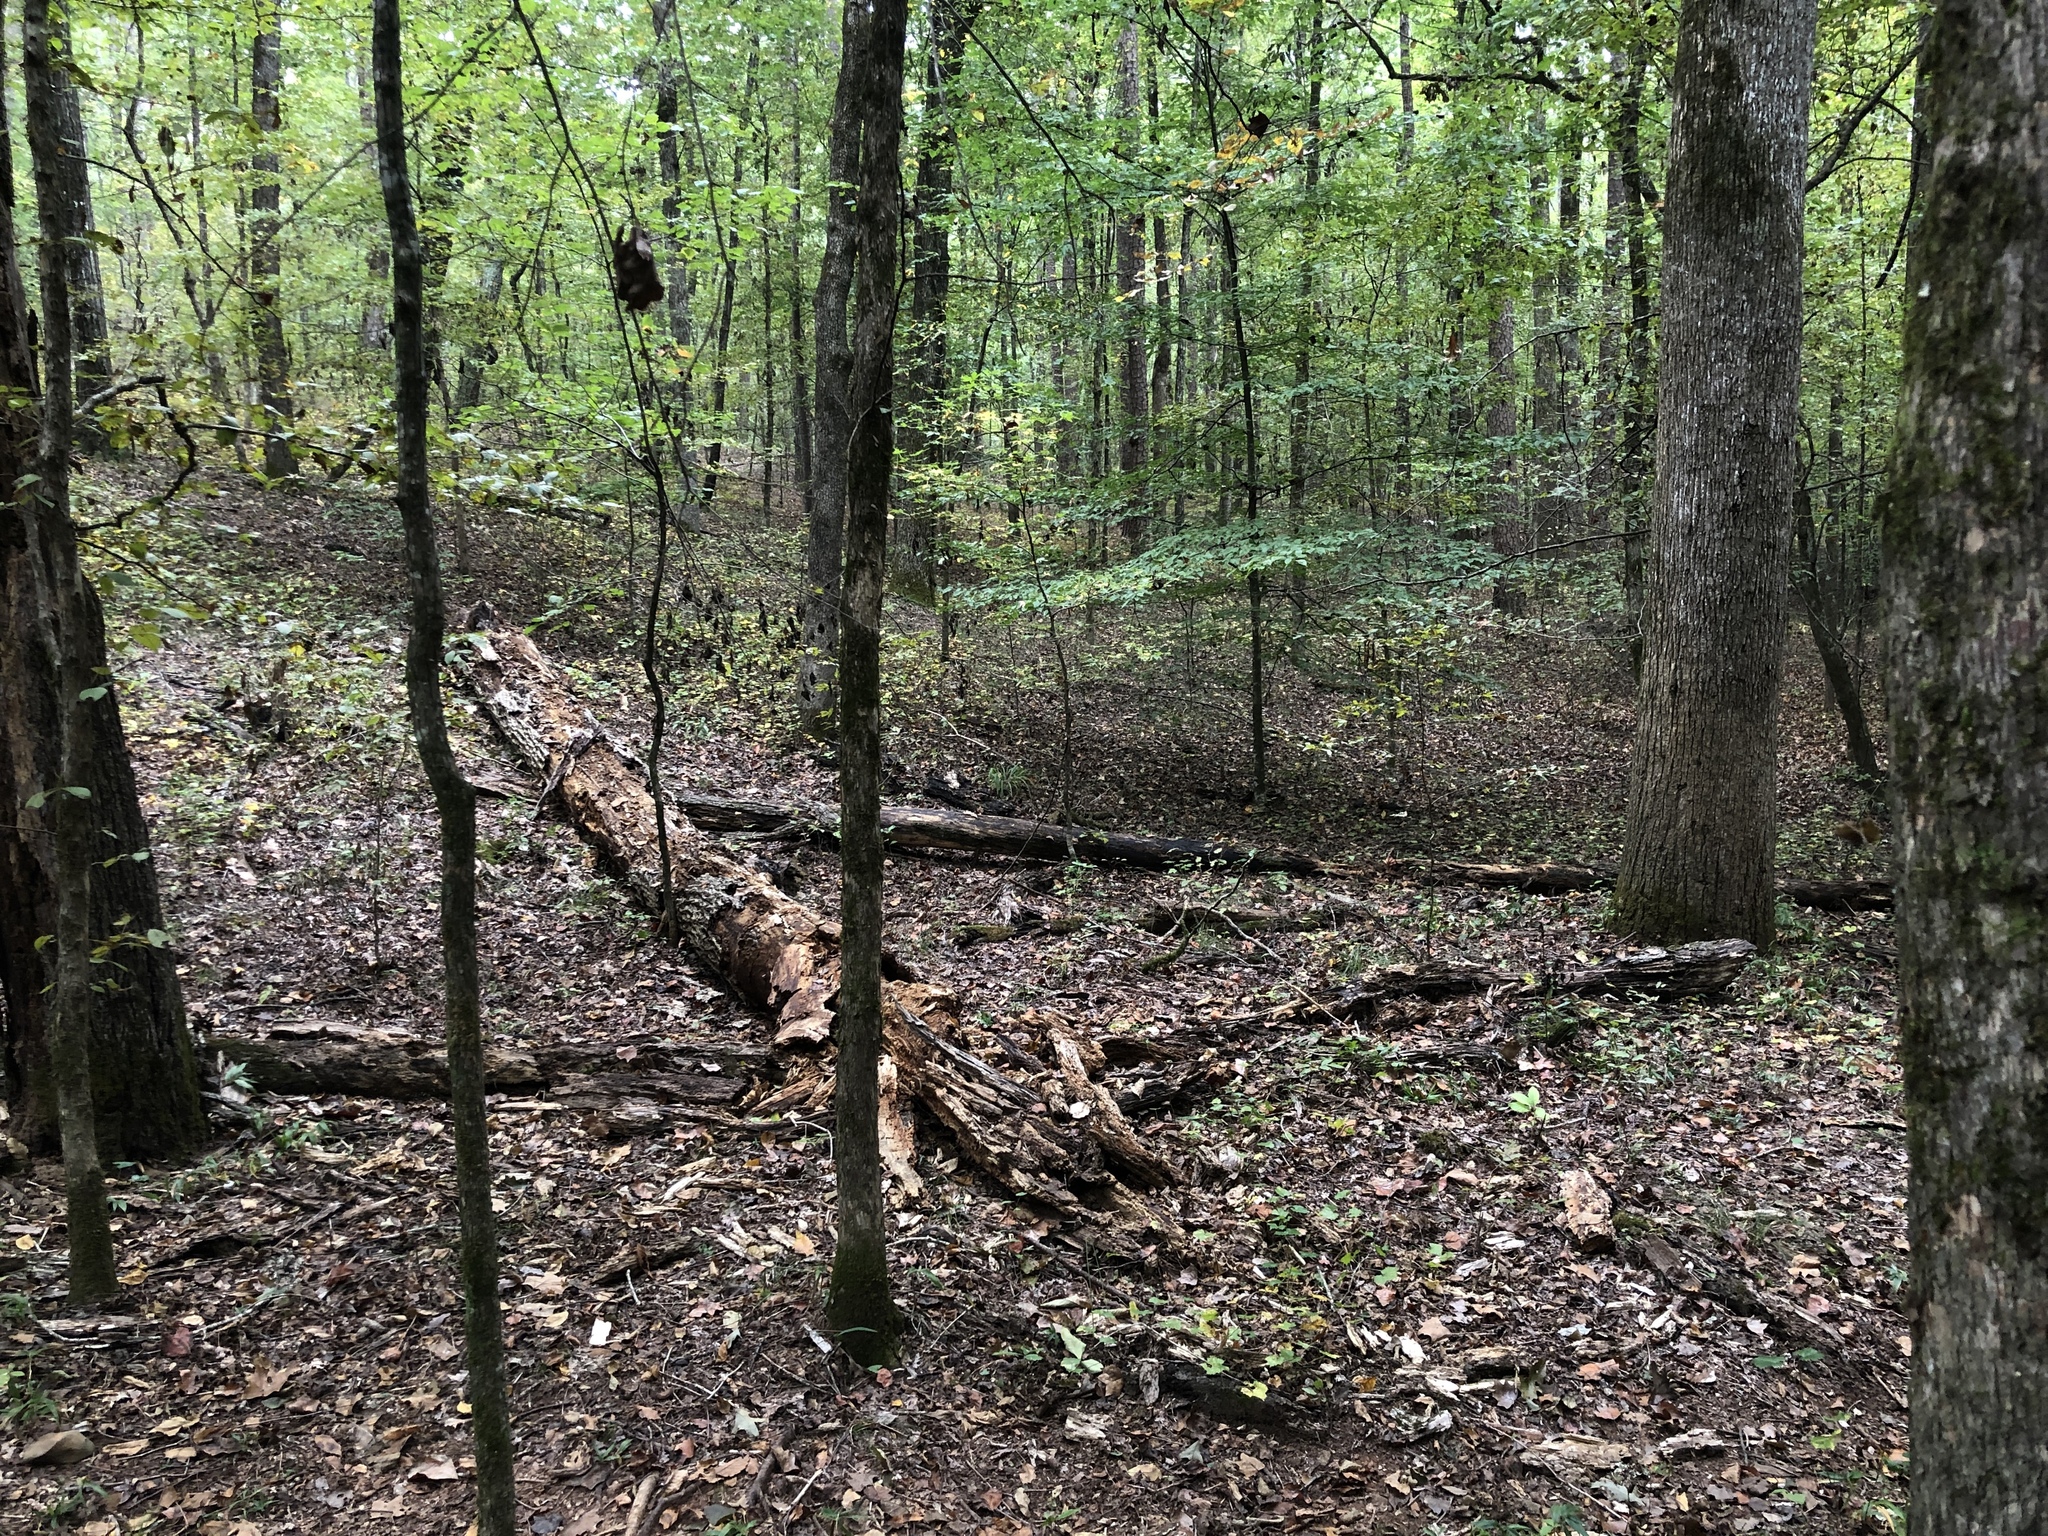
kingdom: Fungi
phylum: Basidiomycota
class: Agaricomycetes
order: Agaricales
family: Lycoperdaceae
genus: Apioperdon
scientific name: Apioperdon pyriforme
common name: Pear-shaped puffball
